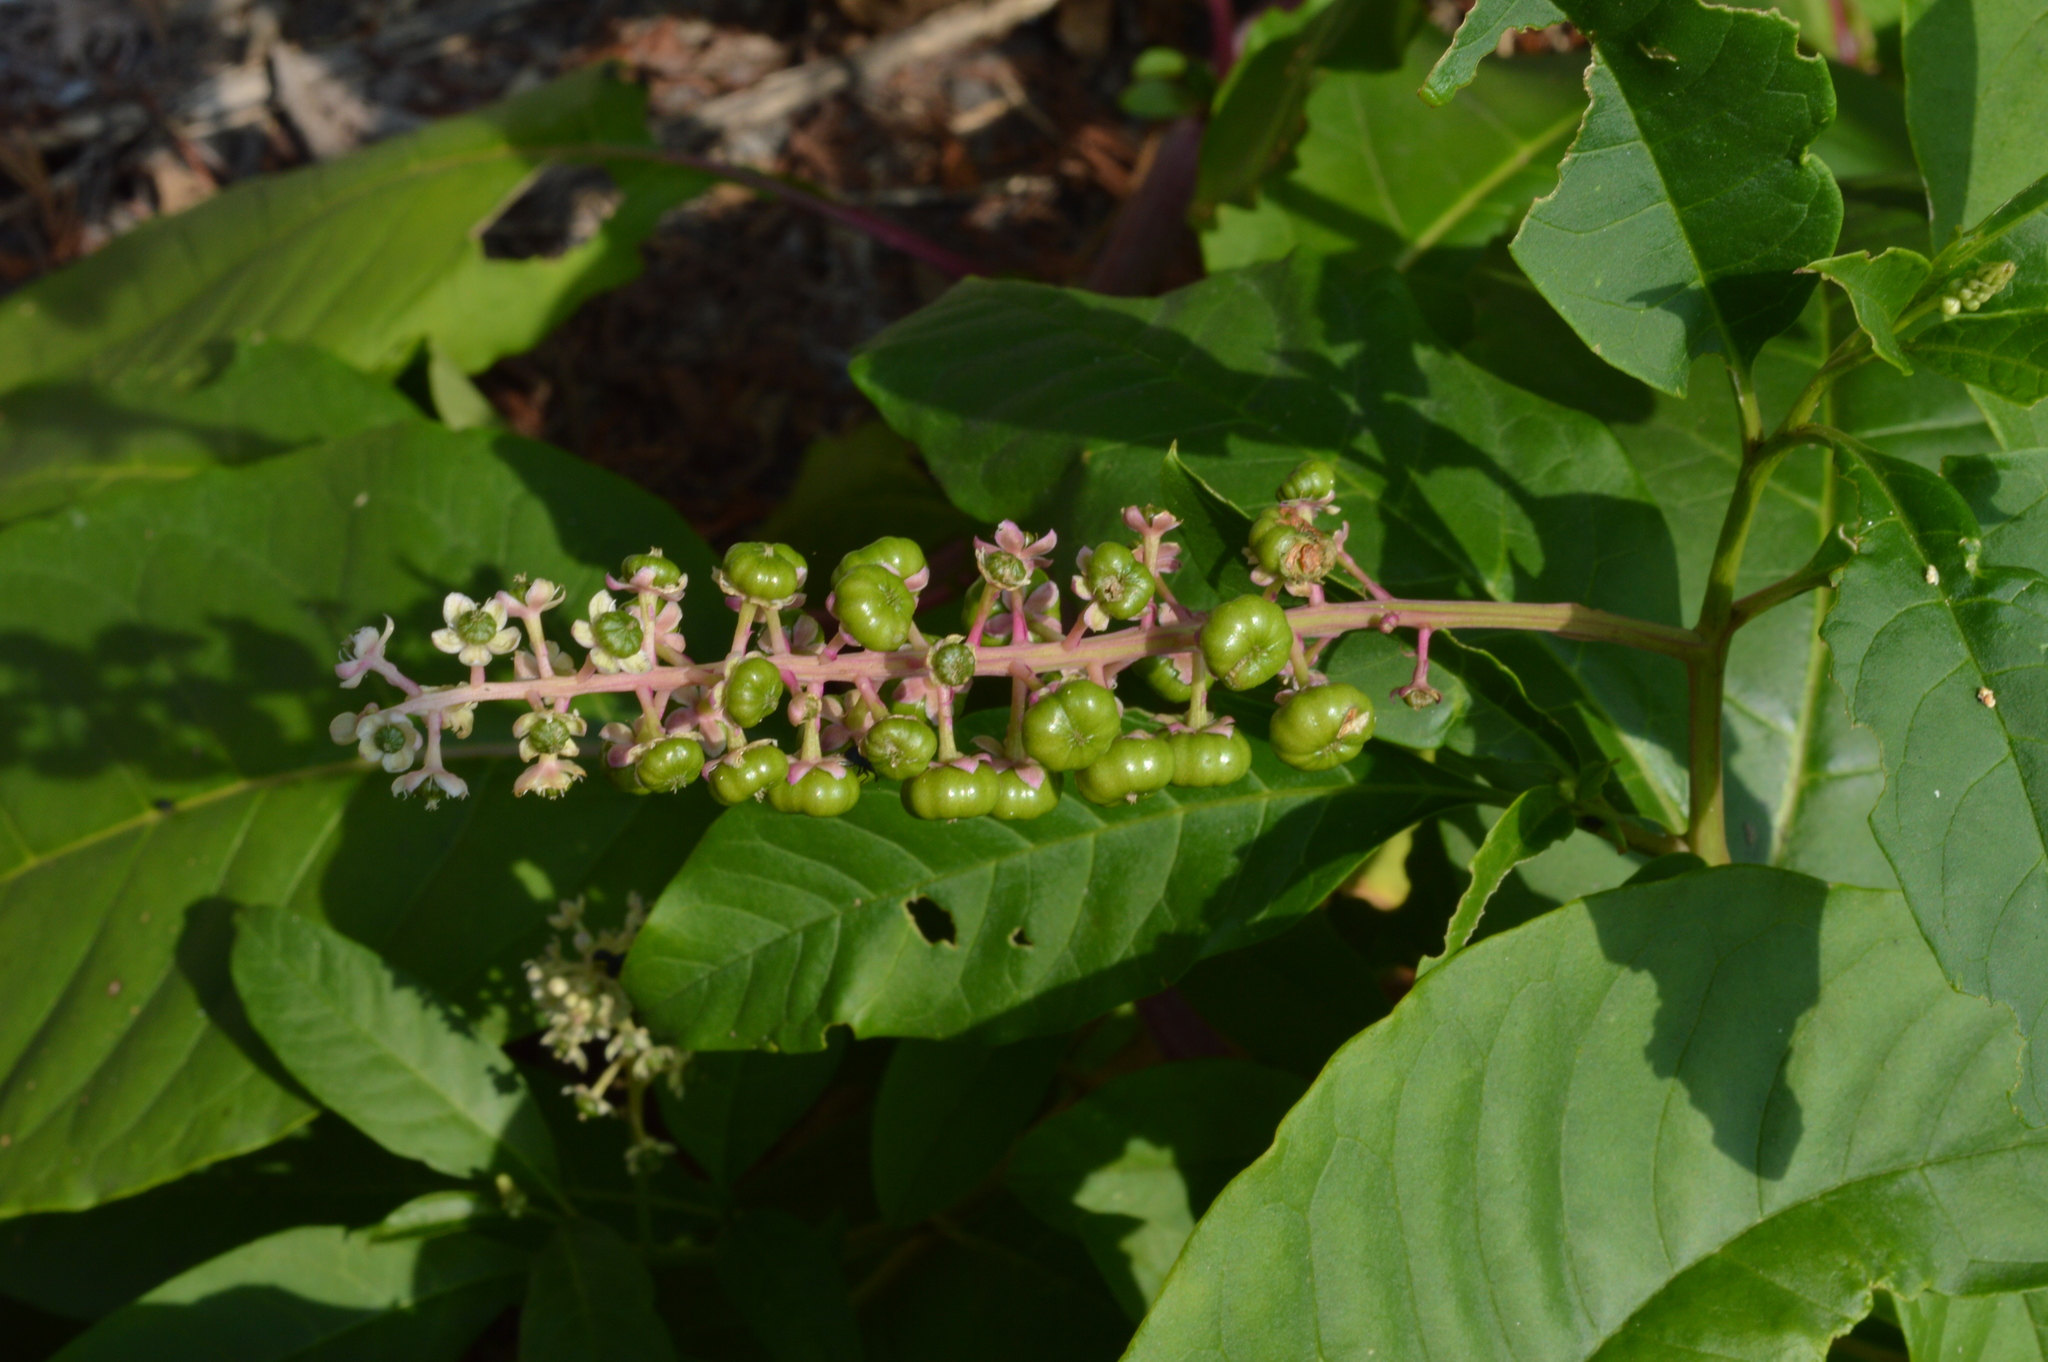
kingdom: Plantae
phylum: Tracheophyta
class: Magnoliopsida
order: Caryophyllales
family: Phytolaccaceae
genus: Phytolacca
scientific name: Phytolacca americana
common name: American pokeweed
